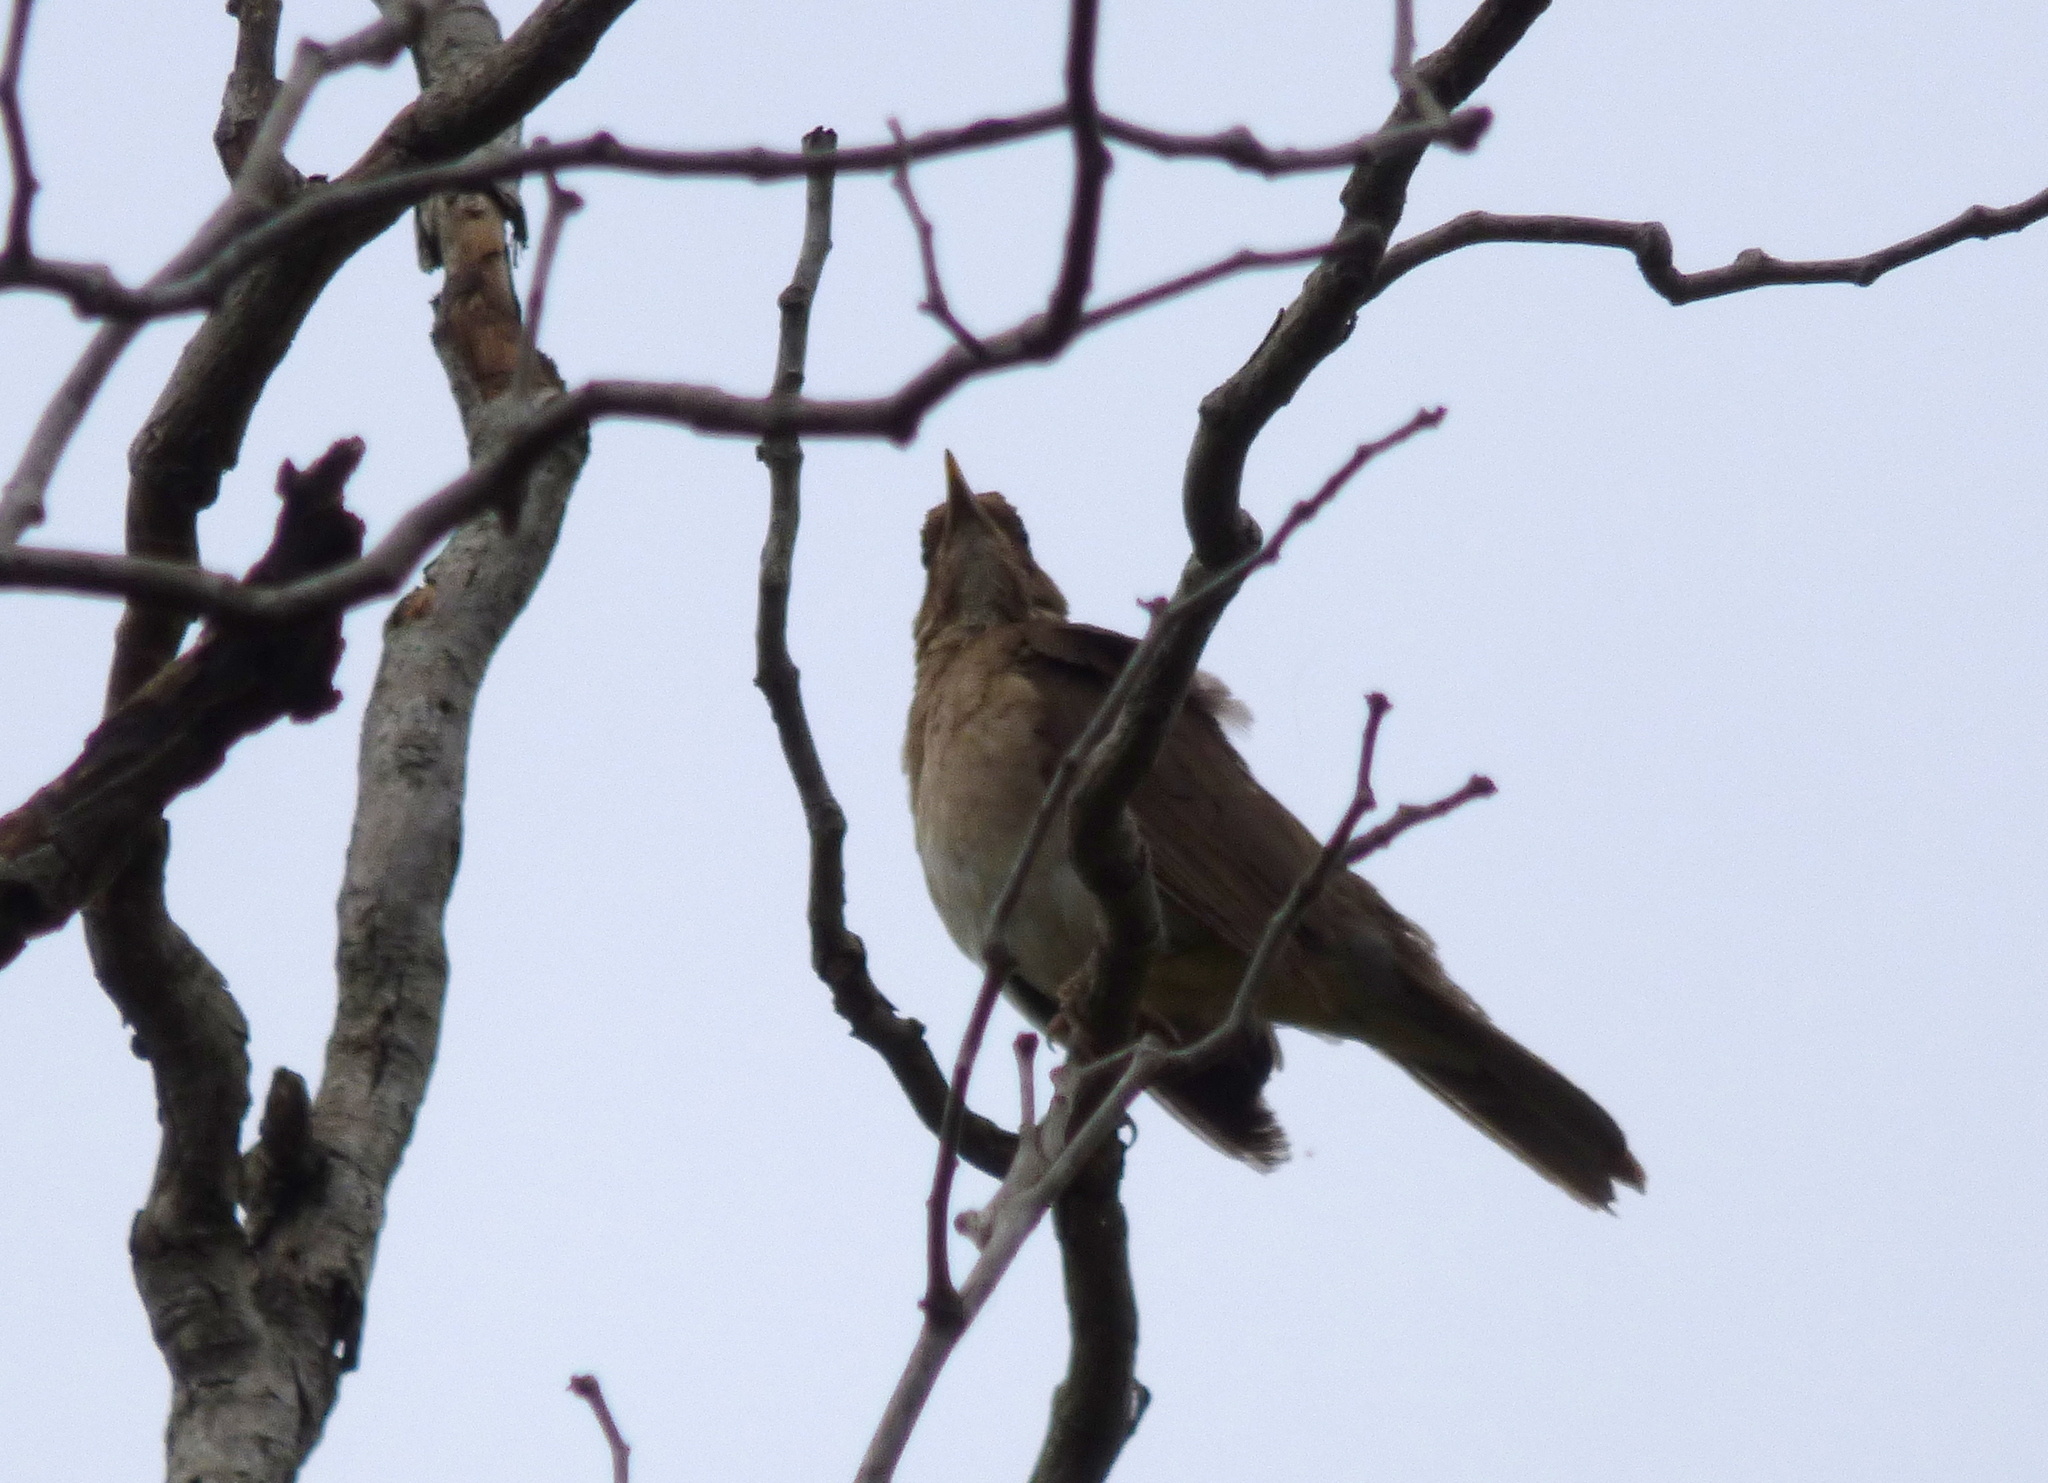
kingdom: Animalia
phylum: Chordata
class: Aves
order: Passeriformes
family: Turdidae
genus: Turdus
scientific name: Turdus amaurochalinus
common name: Creamy-bellied thrush
